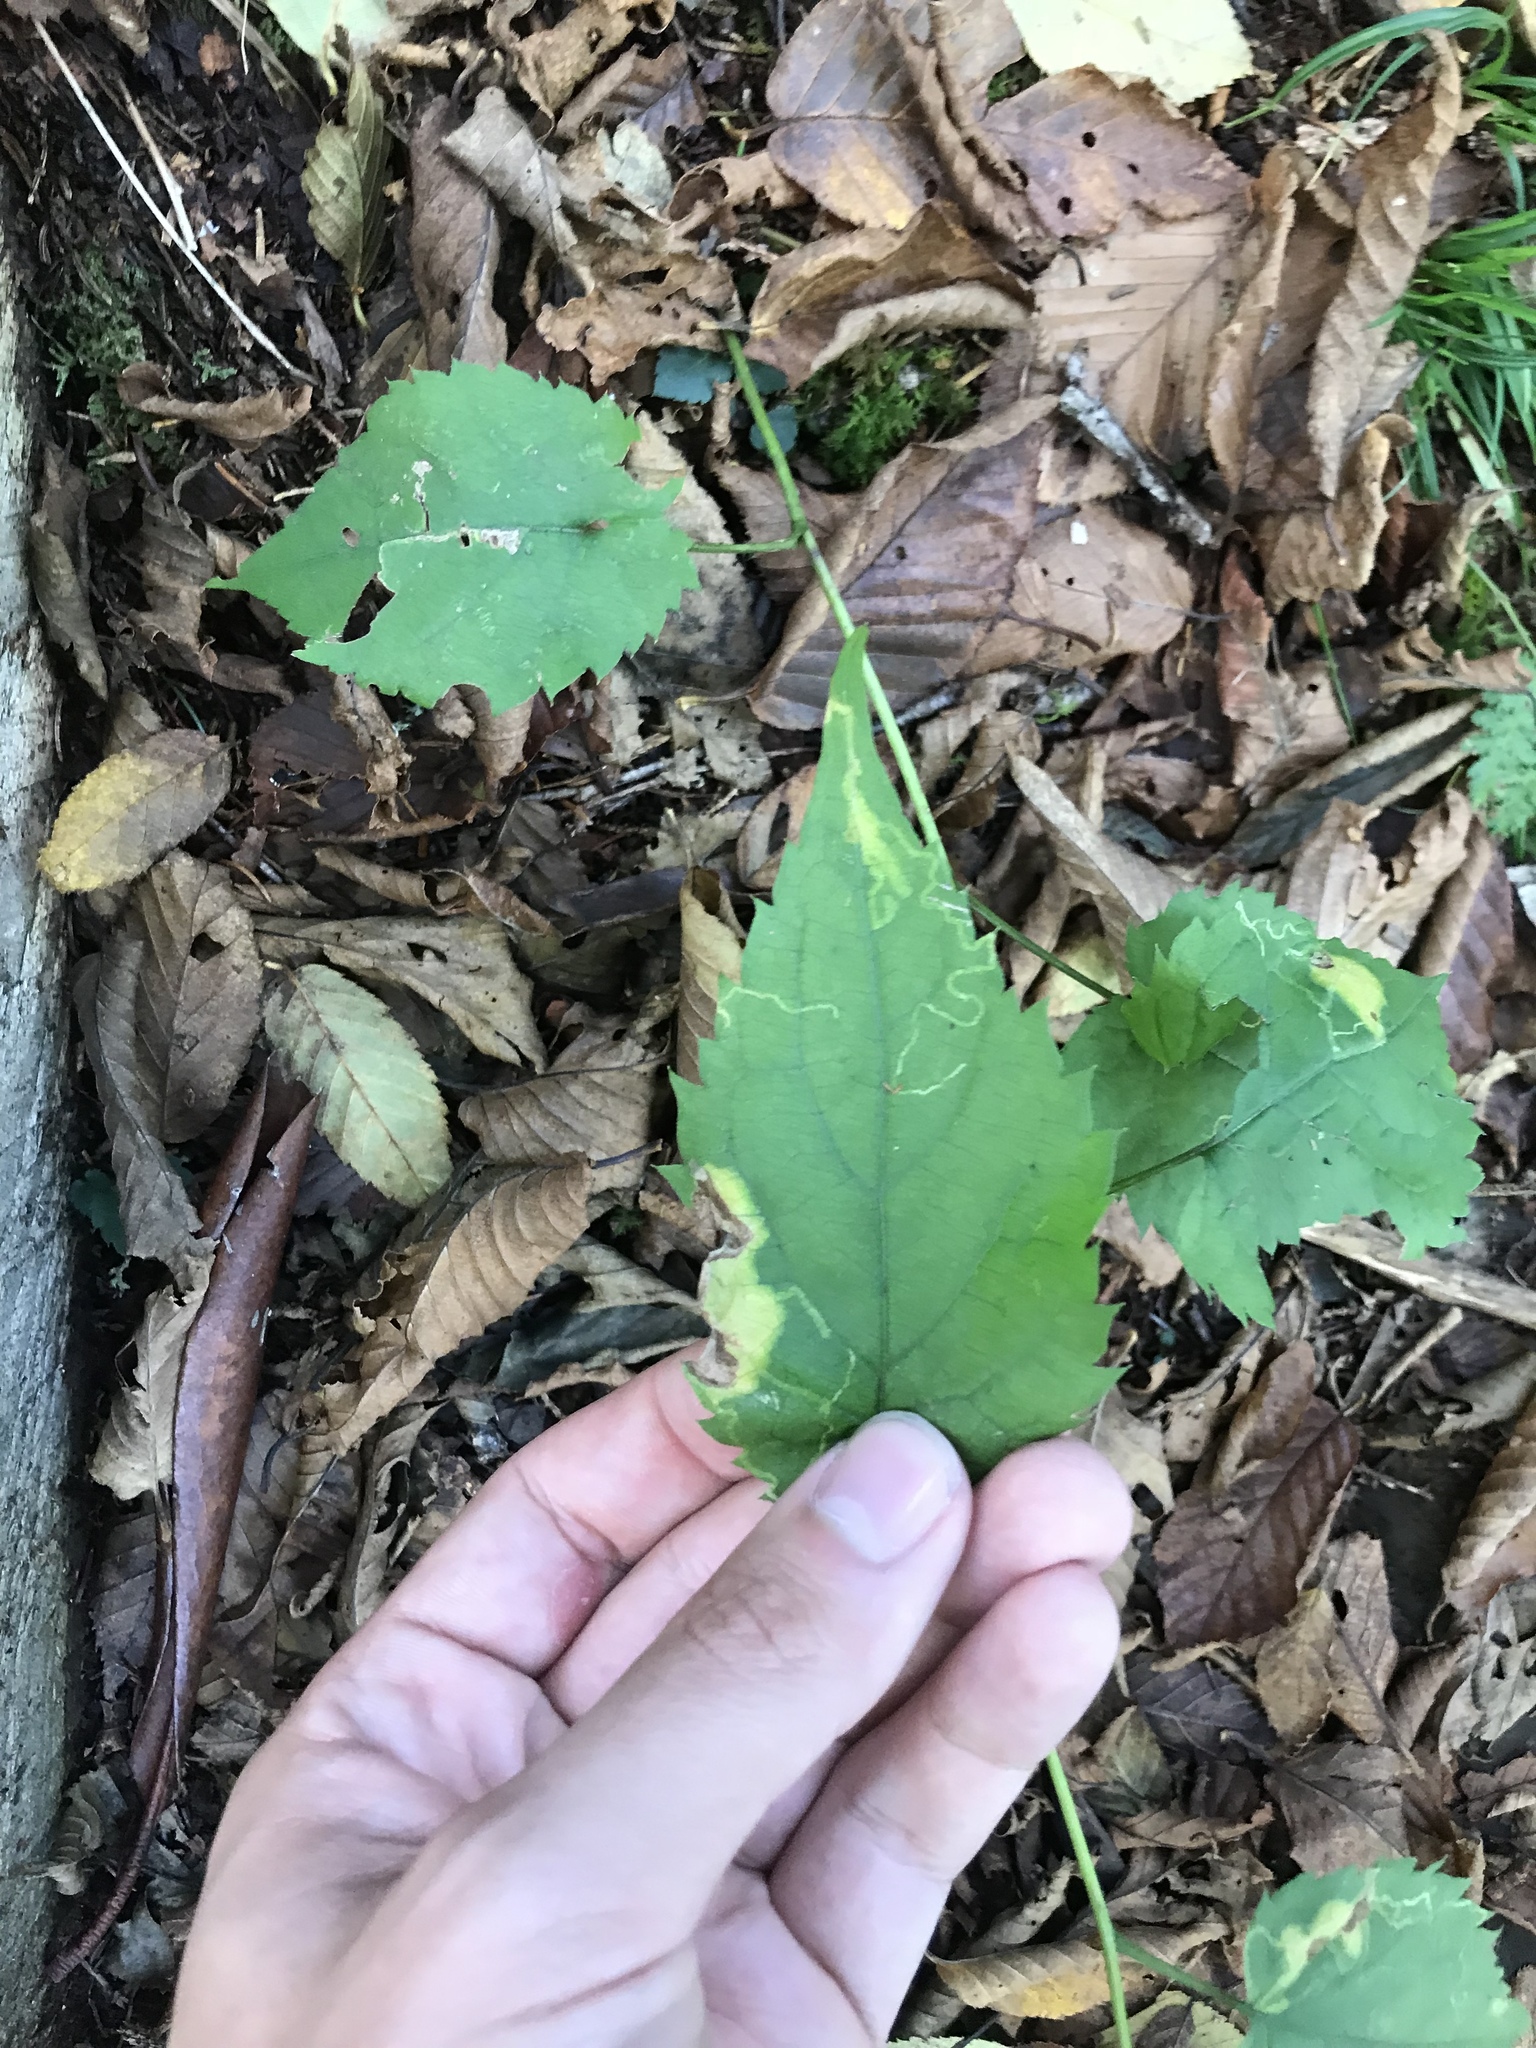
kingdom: Plantae
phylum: Tracheophyta
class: Magnoliopsida
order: Asterales
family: Asteraceae
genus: Eurybia
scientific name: Eurybia divaricata
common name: White wood aster
